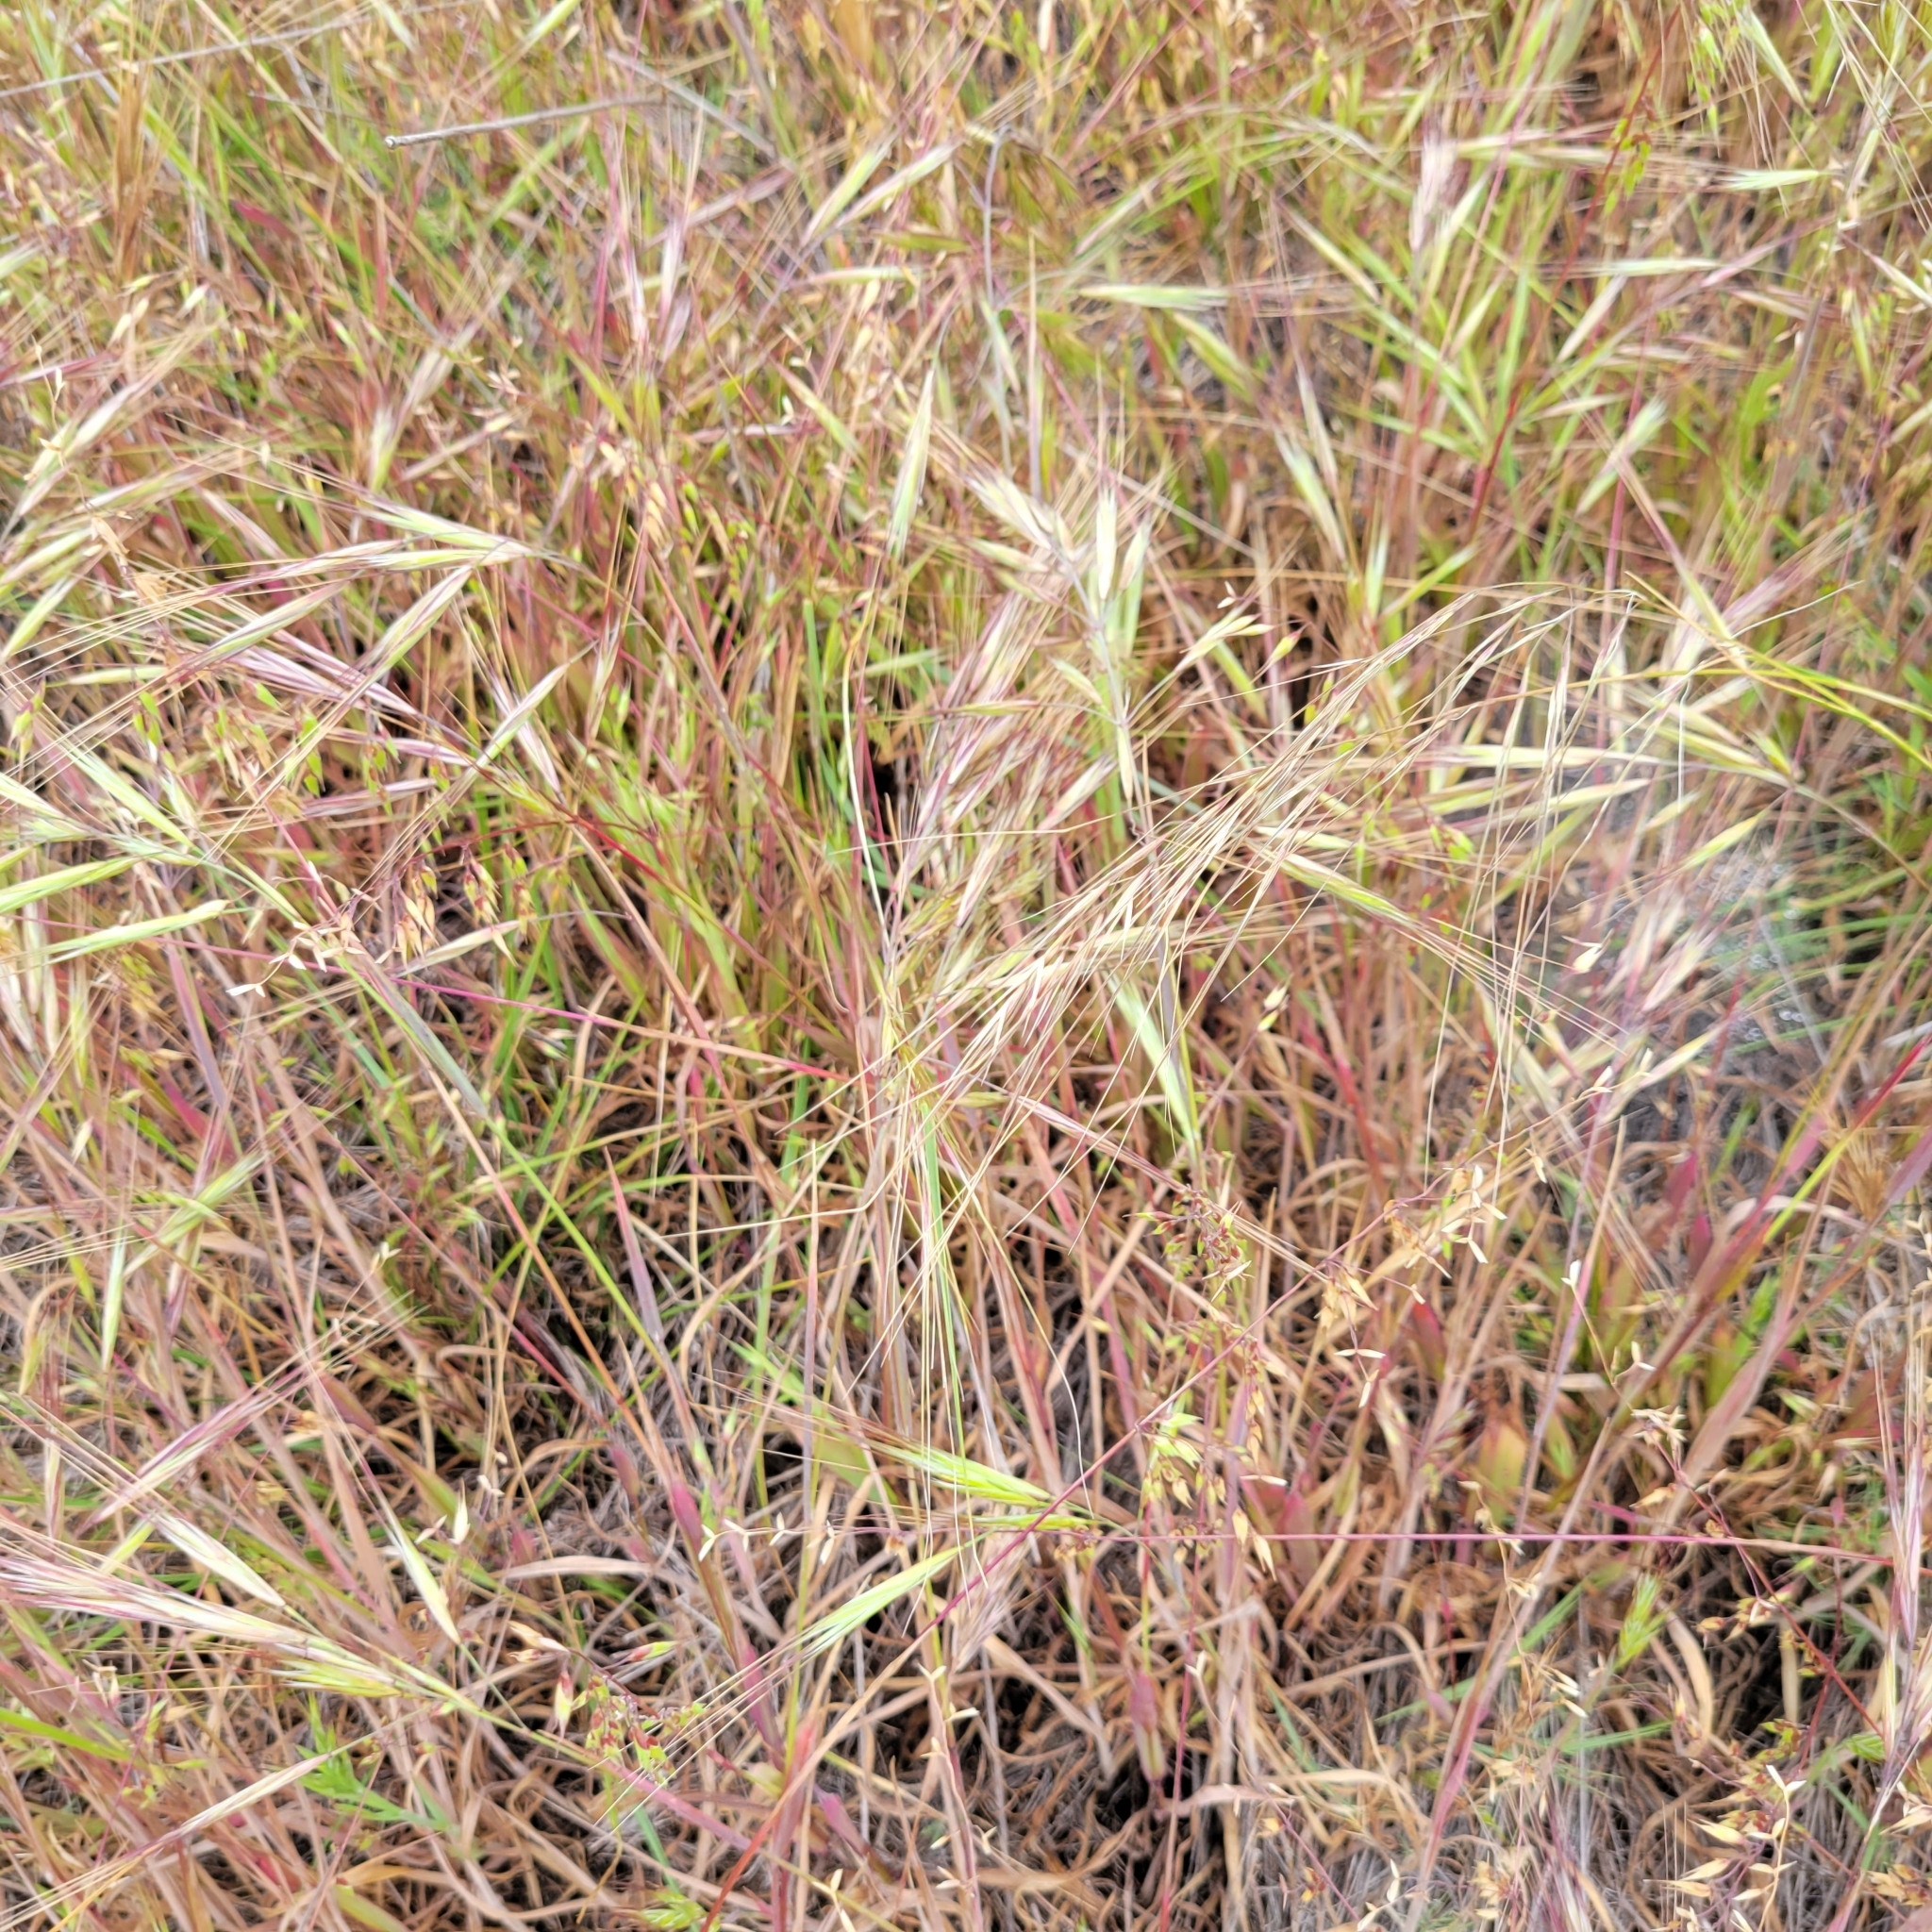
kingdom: Plantae
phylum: Tracheophyta
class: Liliopsida
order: Poales
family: Poaceae
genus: Bromus
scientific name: Bromus diandrus
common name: Ripgut brome
